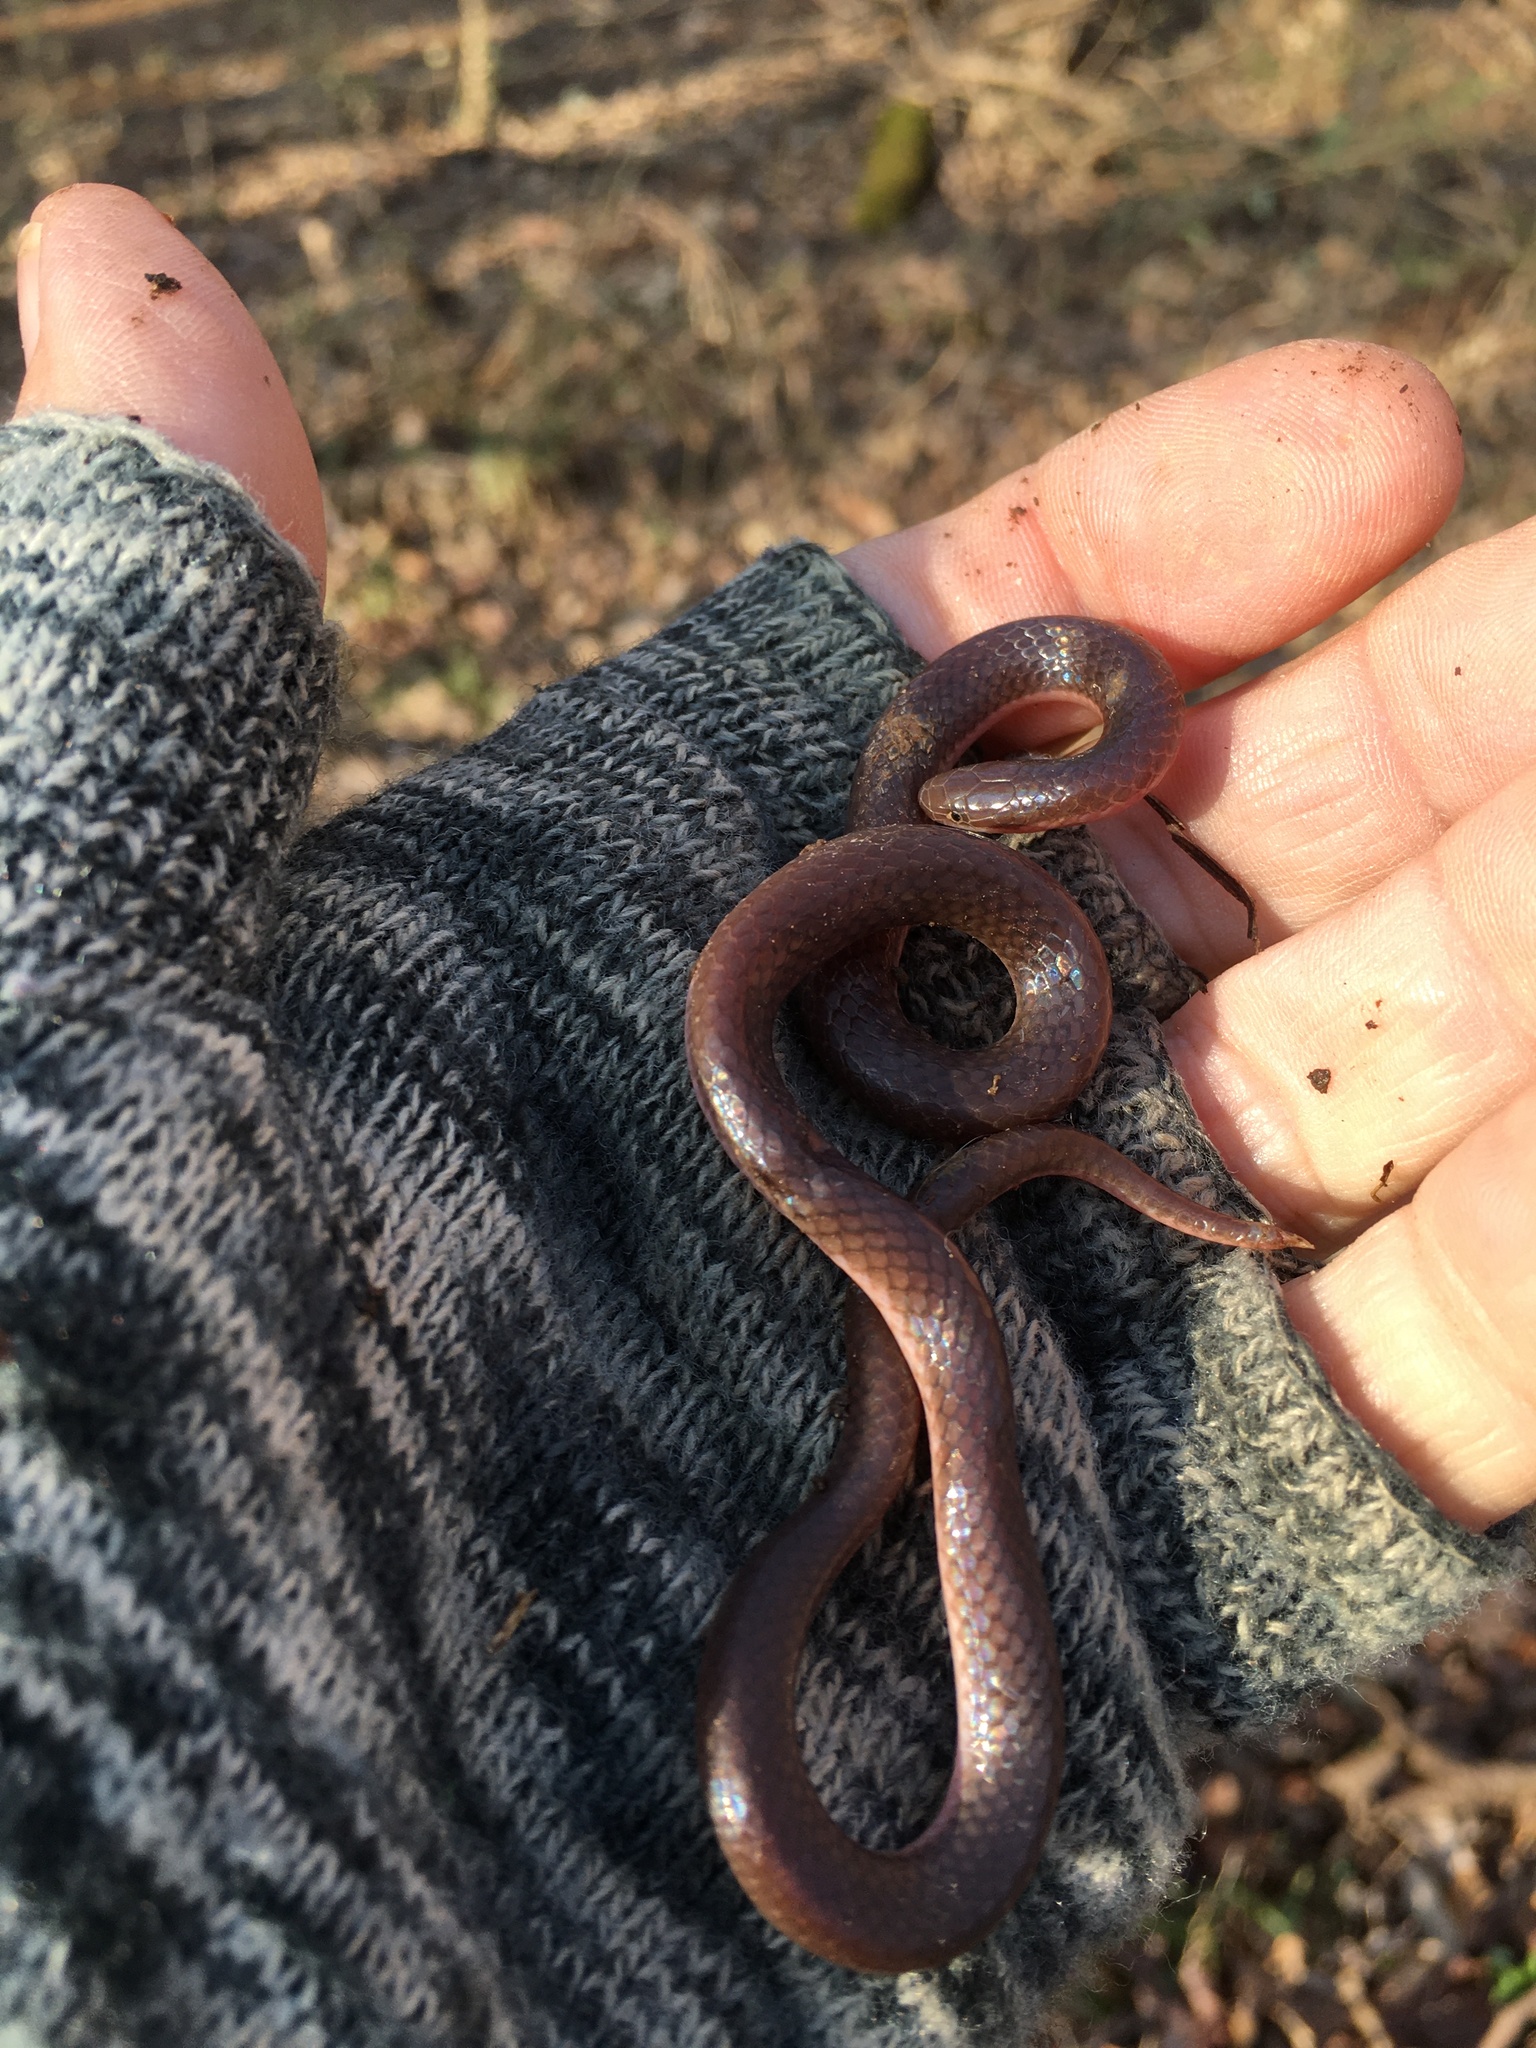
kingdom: Animalia
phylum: Chordata
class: Squamata
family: Colubridae
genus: Carphophis
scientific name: Carphophis amoenus
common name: Eastern worm snake
